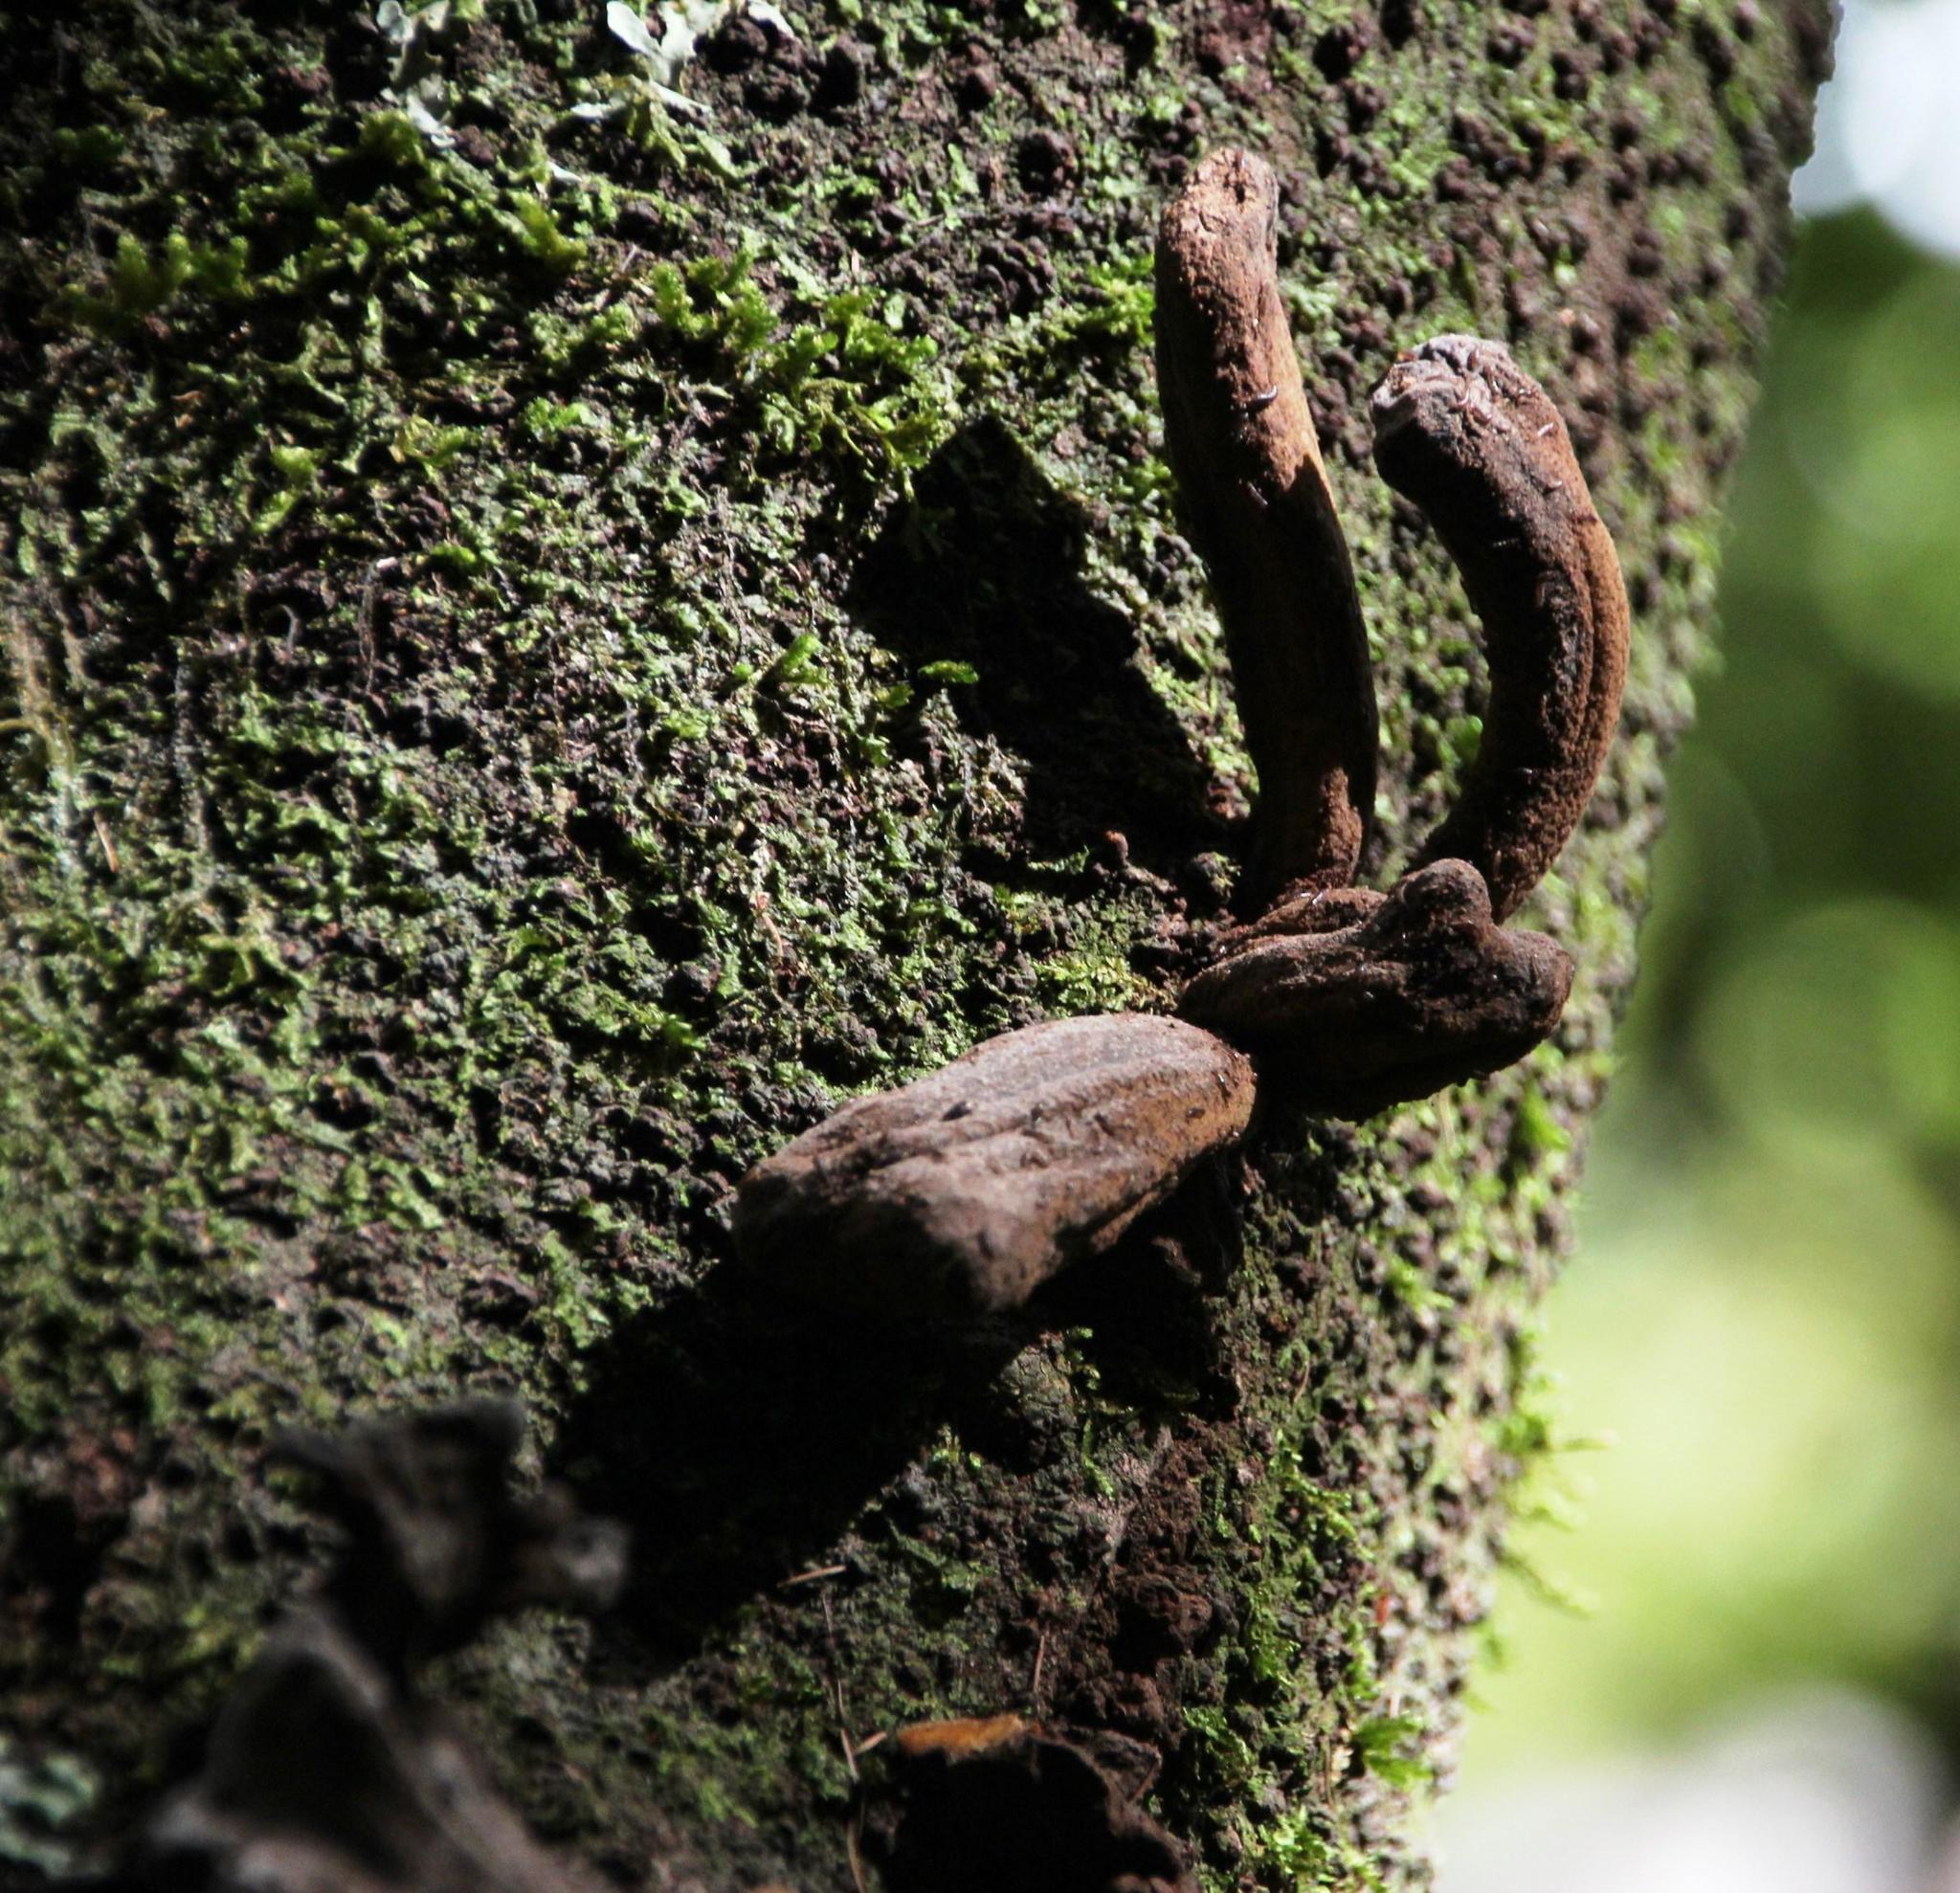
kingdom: Fungi
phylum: Basidiomycota
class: Exobasidiomycetes
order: Exobasidiales
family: Laurobasidiaceae
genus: Laurobasidium
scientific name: Laurobasidium lauri
